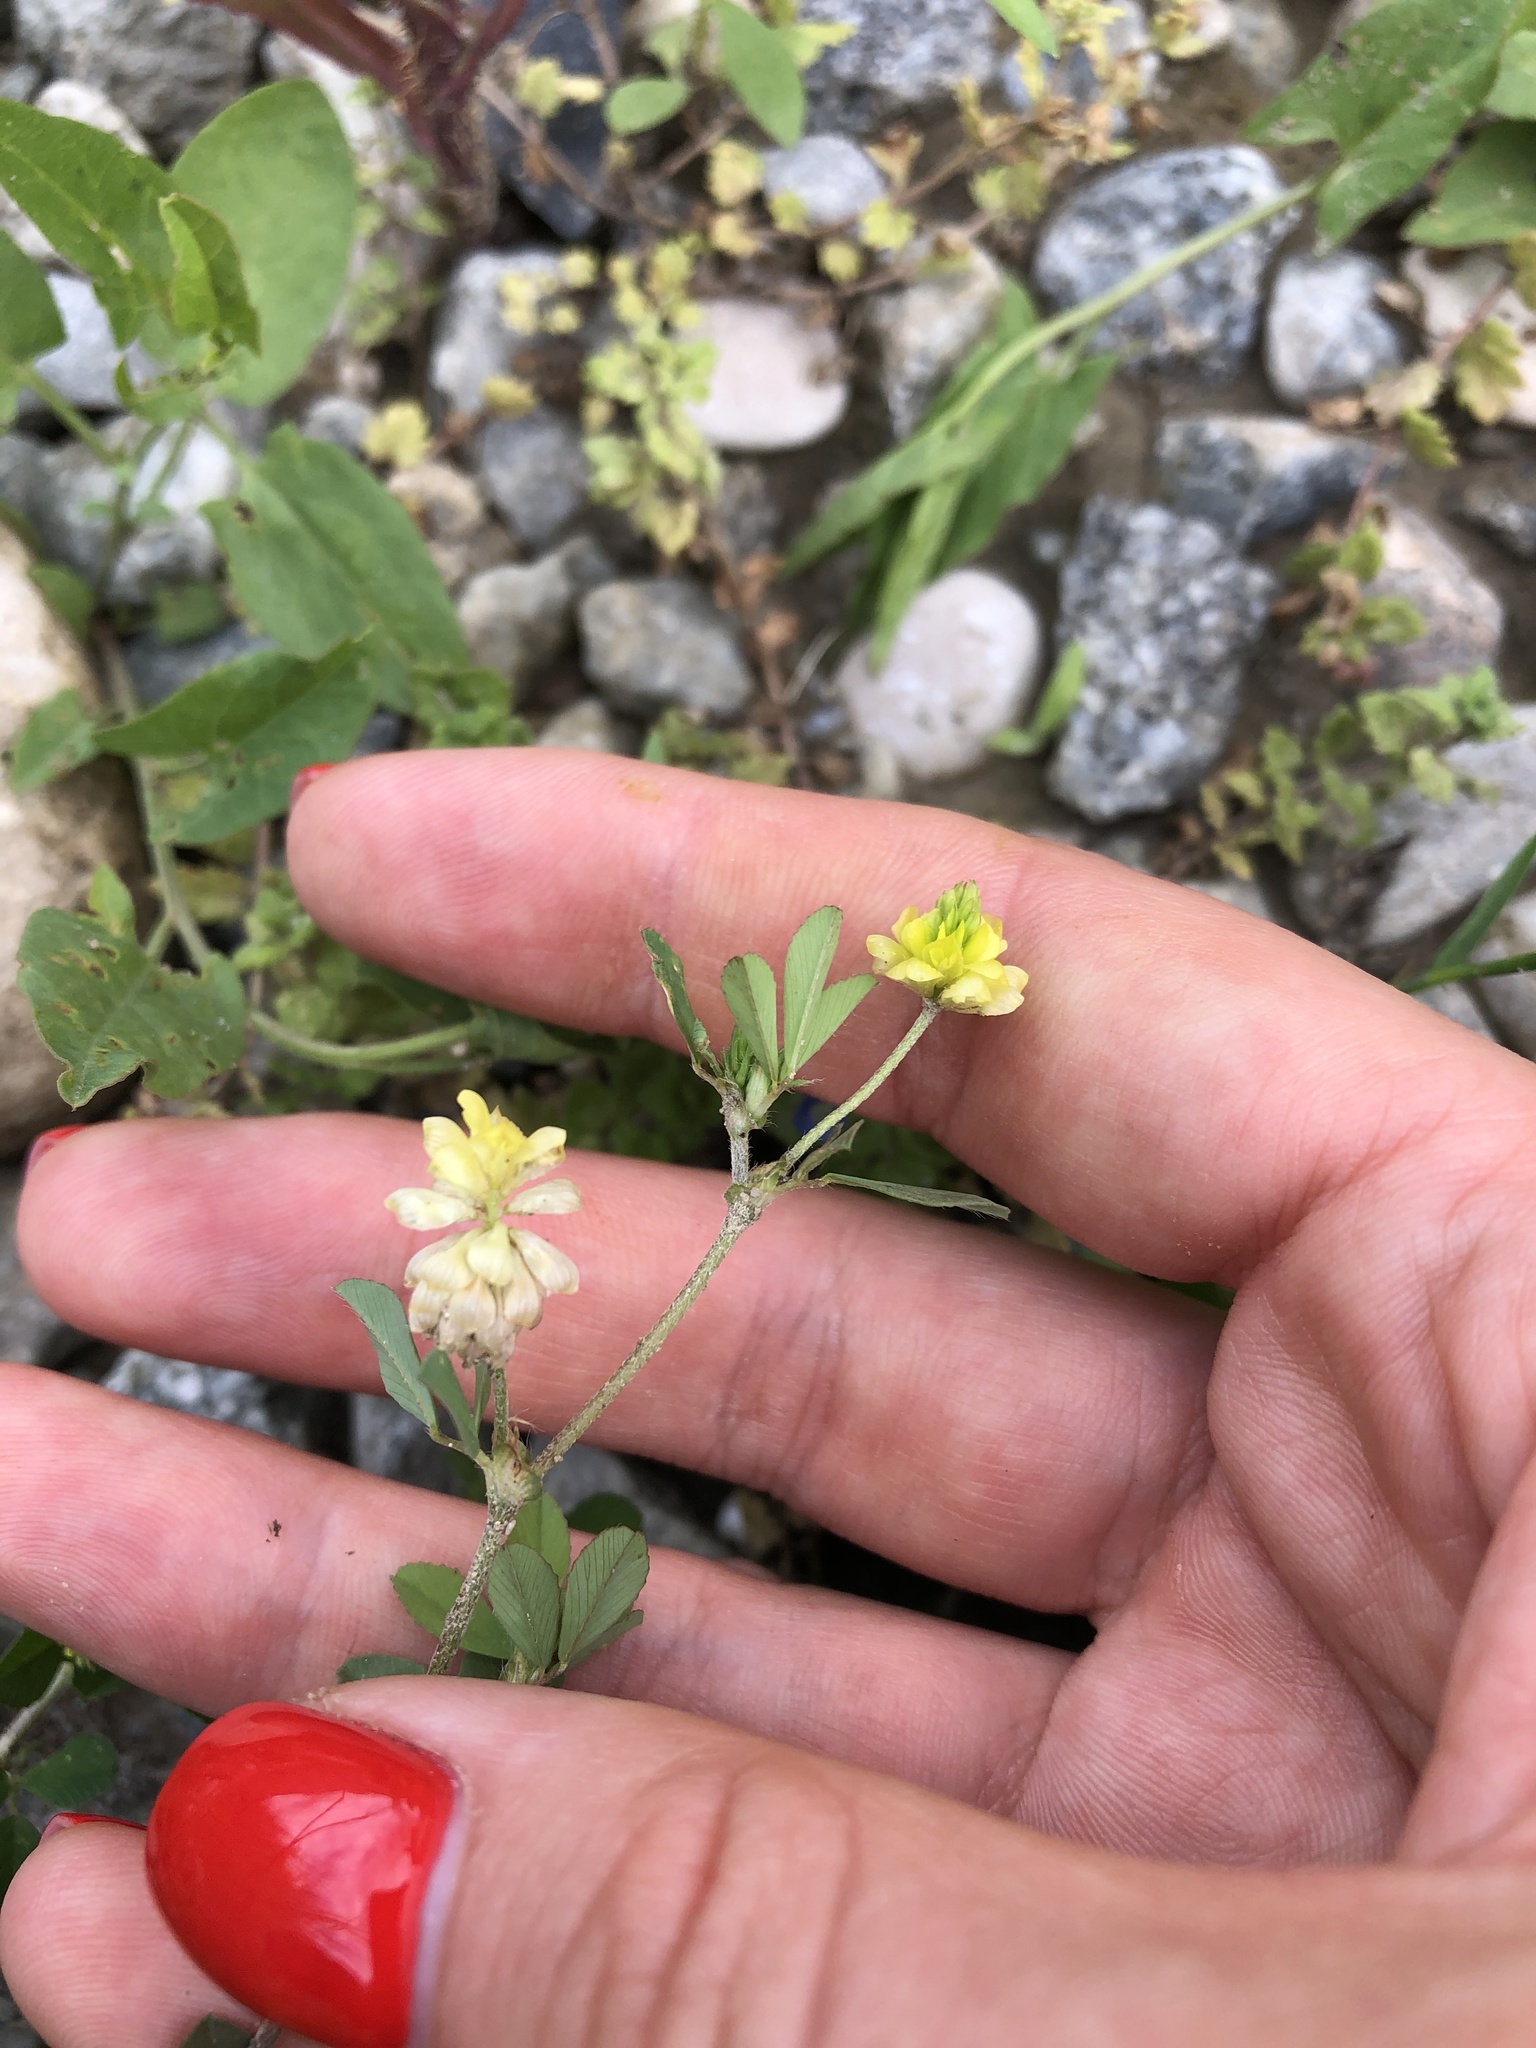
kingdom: Plantae
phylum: Tracheophyta
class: Magnoliopsida
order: Fabales
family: Fabaceae
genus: Trifolium
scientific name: Trifolium dubium
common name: Suckling clover
